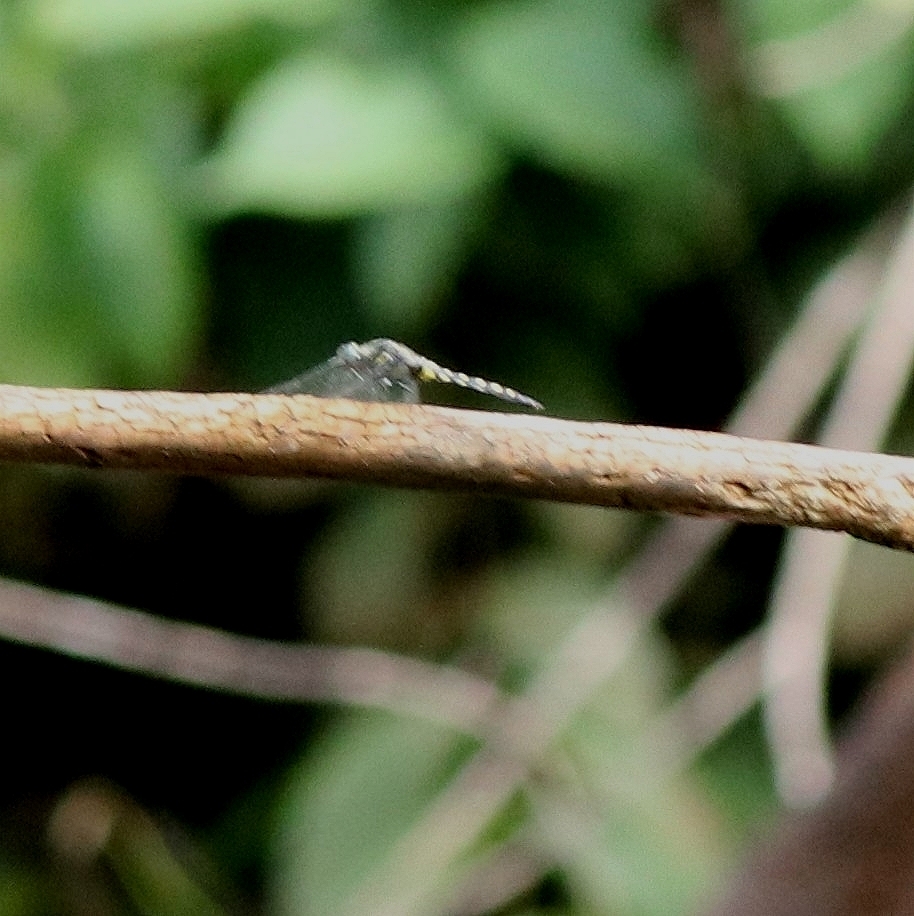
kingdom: Animalia
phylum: Arthropoda
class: Insecta
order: Odonata
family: Libellulidae
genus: Onychothemis
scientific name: Onychothemis testacea
